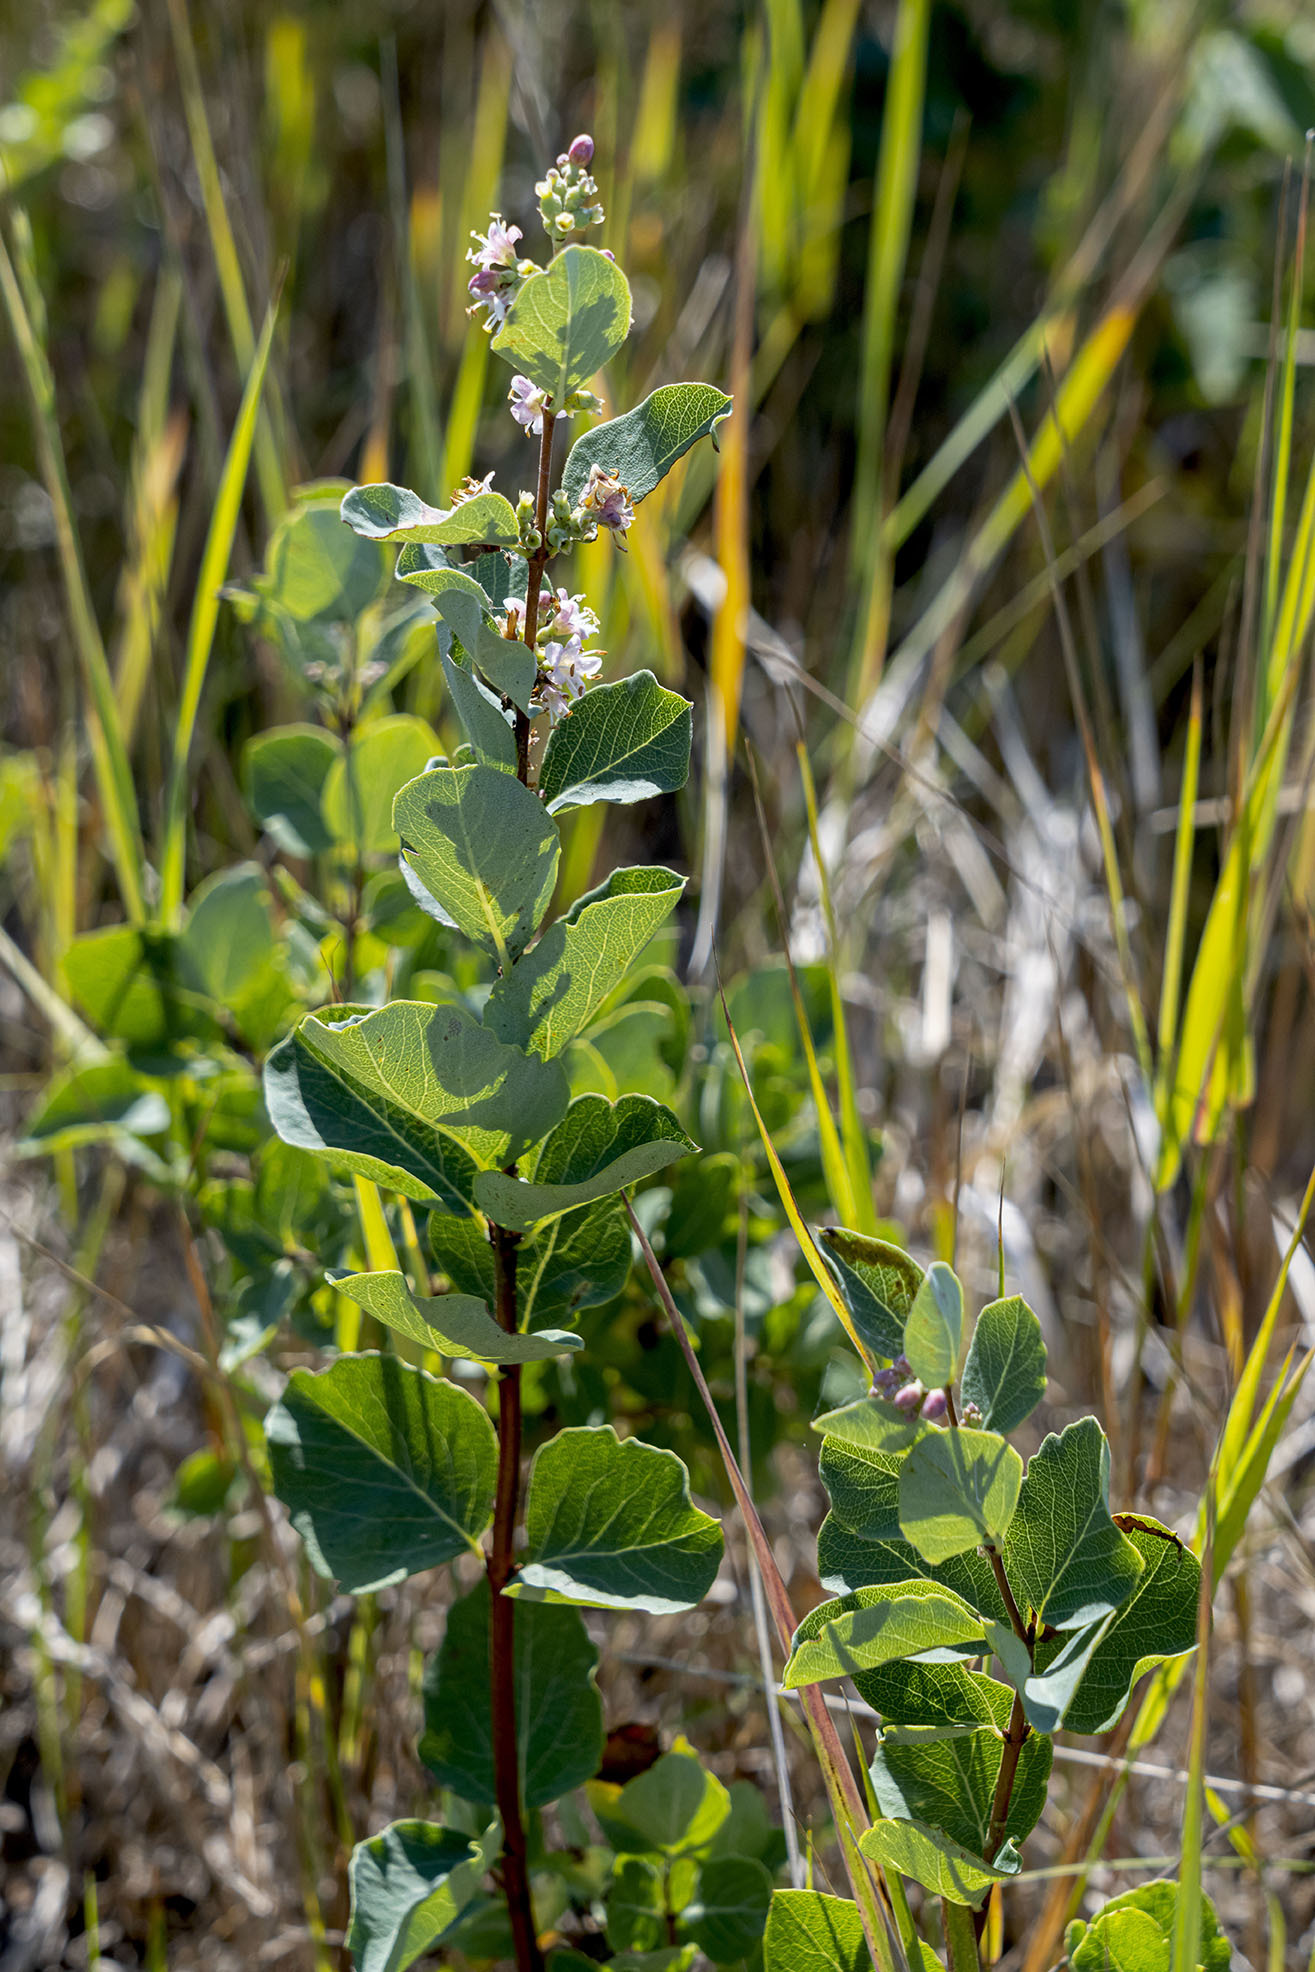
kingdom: Plantae
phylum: Tracheophyta
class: Magnoliopsida
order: Dipsacales
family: Caprifoliaceae
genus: Symphoricarpos
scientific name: Symphoricarpos occidentalis
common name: Wolfberry
